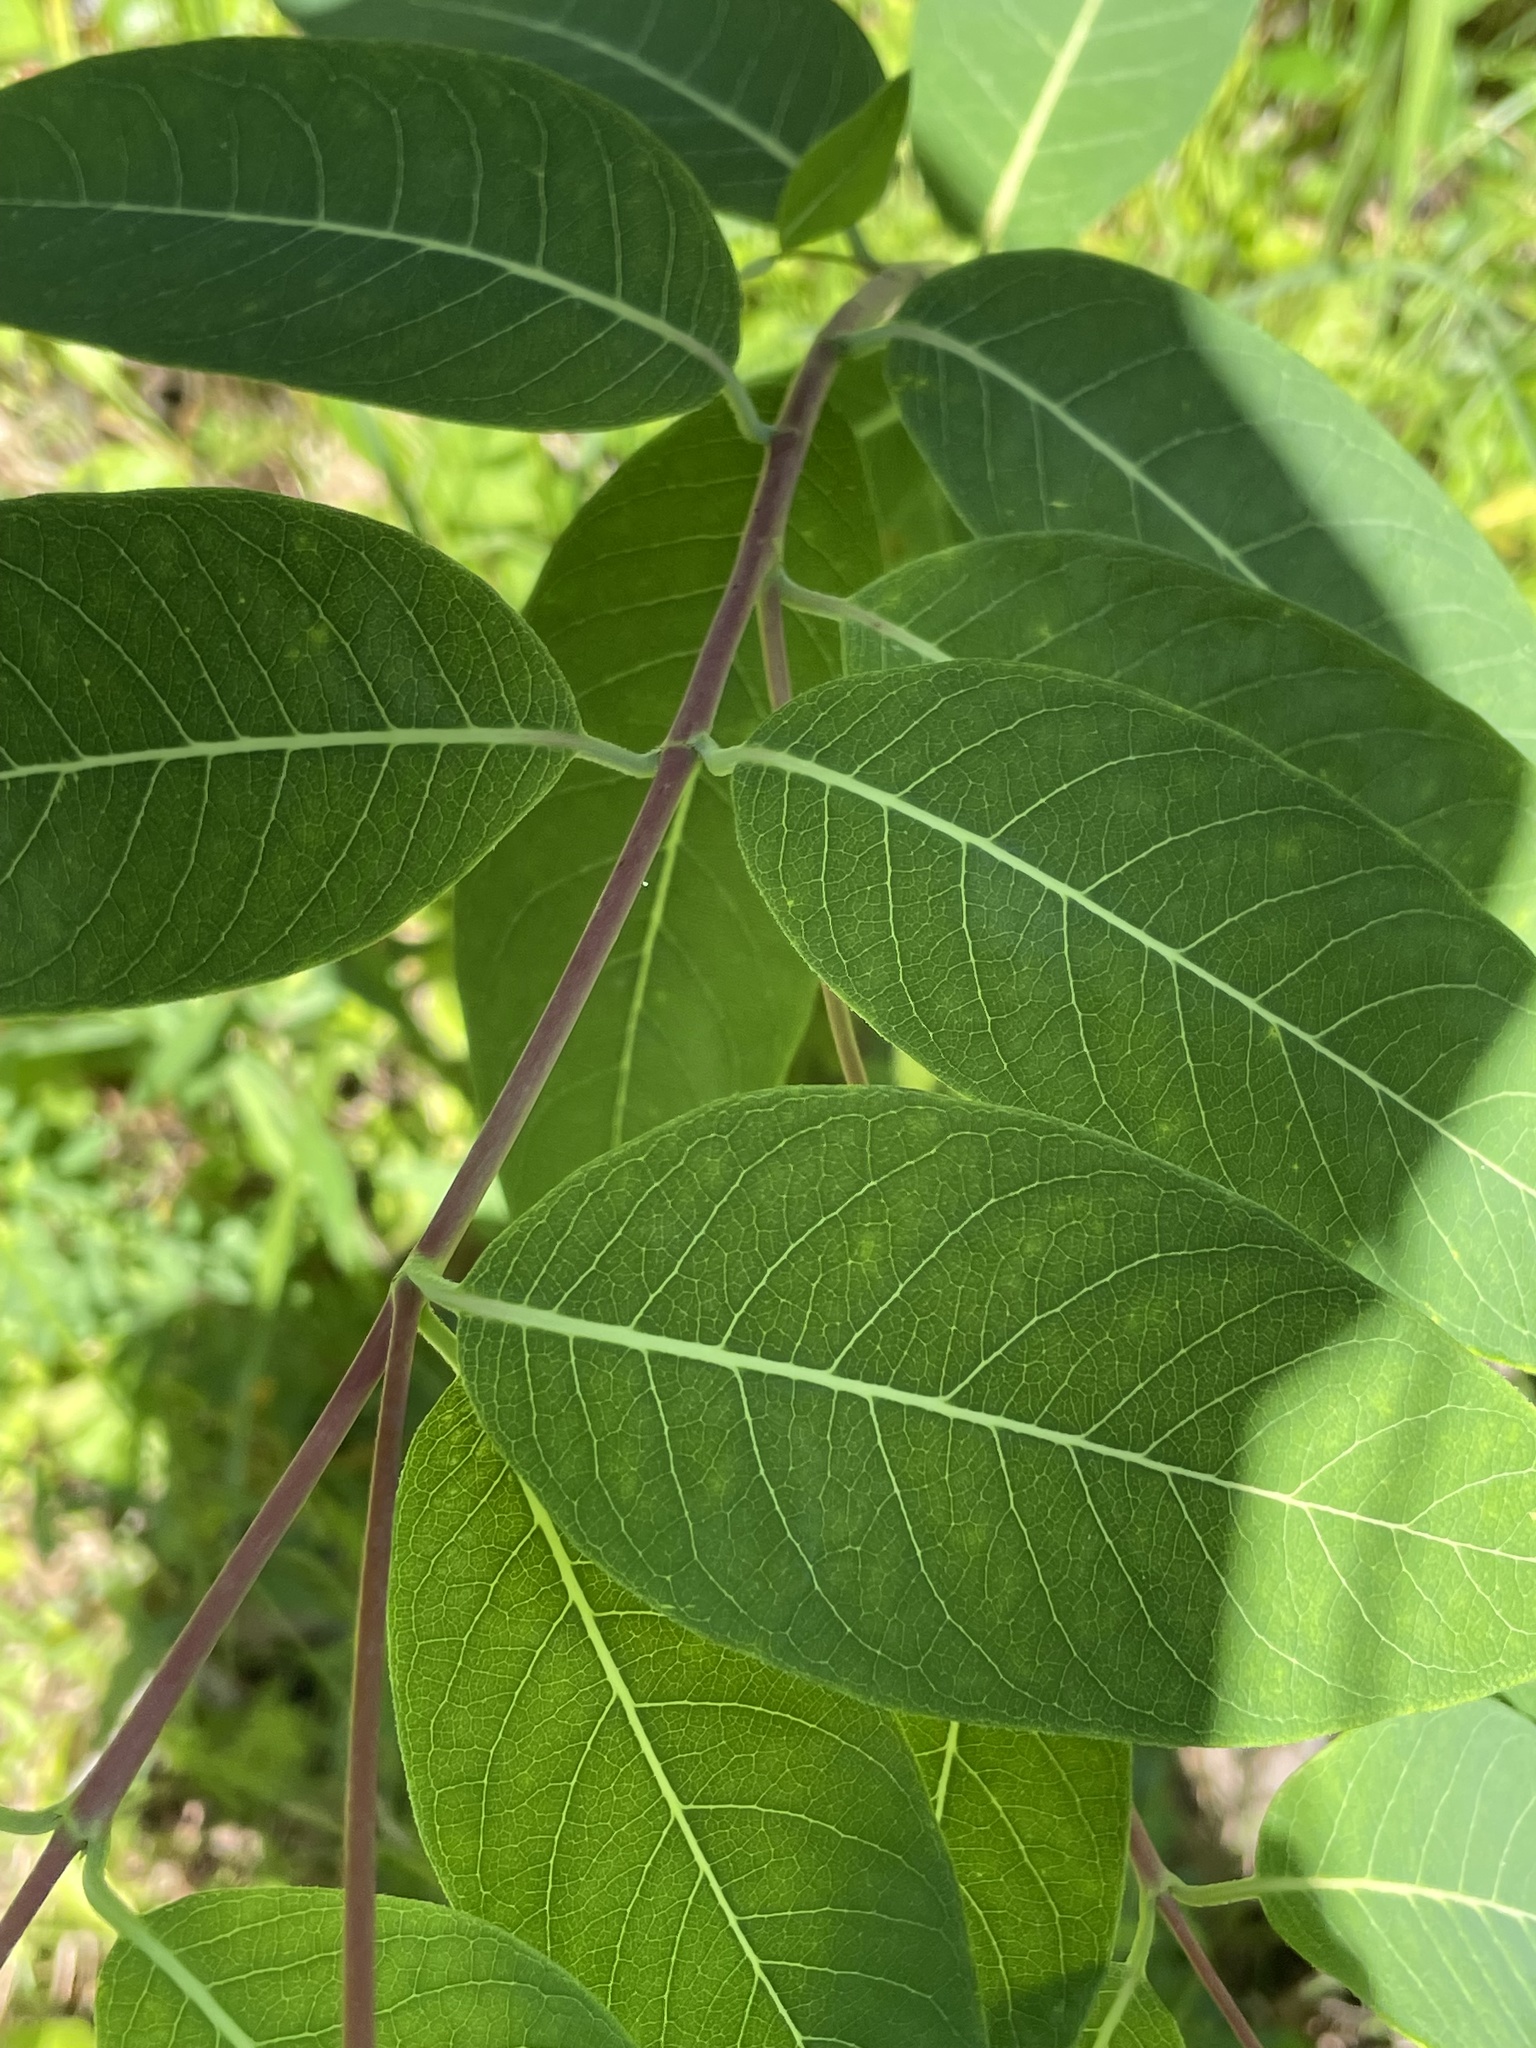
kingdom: Plantae
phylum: Tracheophyta
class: Magnoliopsida
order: Gentianales
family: Apocynaceae
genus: Apocynum
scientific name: Apocynum cannabinum
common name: Hemp dogbane
